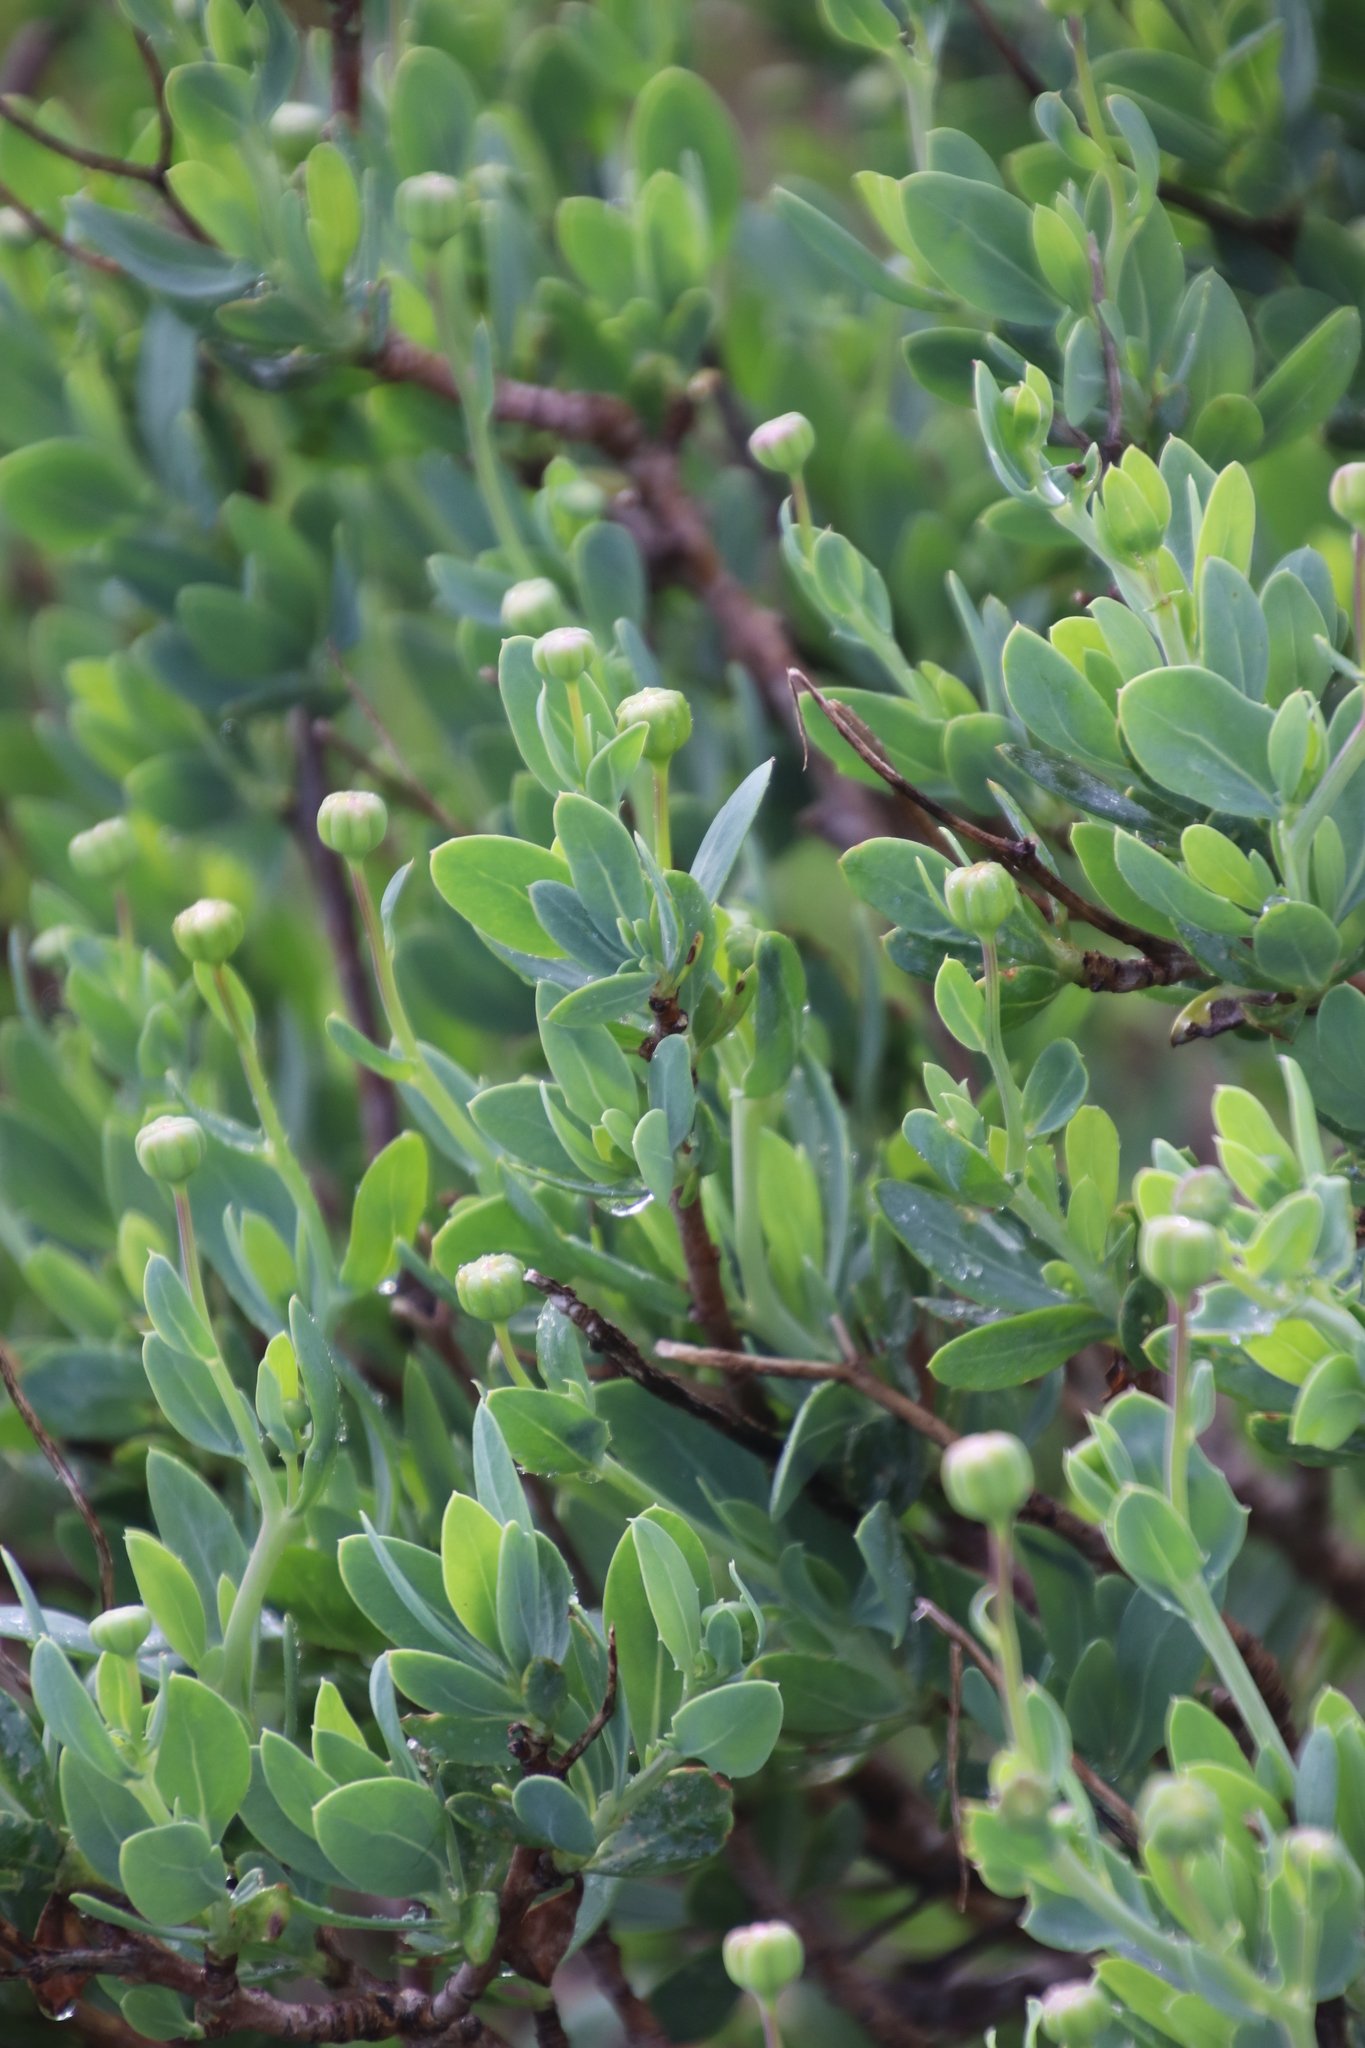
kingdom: Plantae
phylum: Tracheophyta
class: Magnoliopsida
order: Asterales
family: Asteraceae
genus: Othonna
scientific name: Othonna coronopifolia
